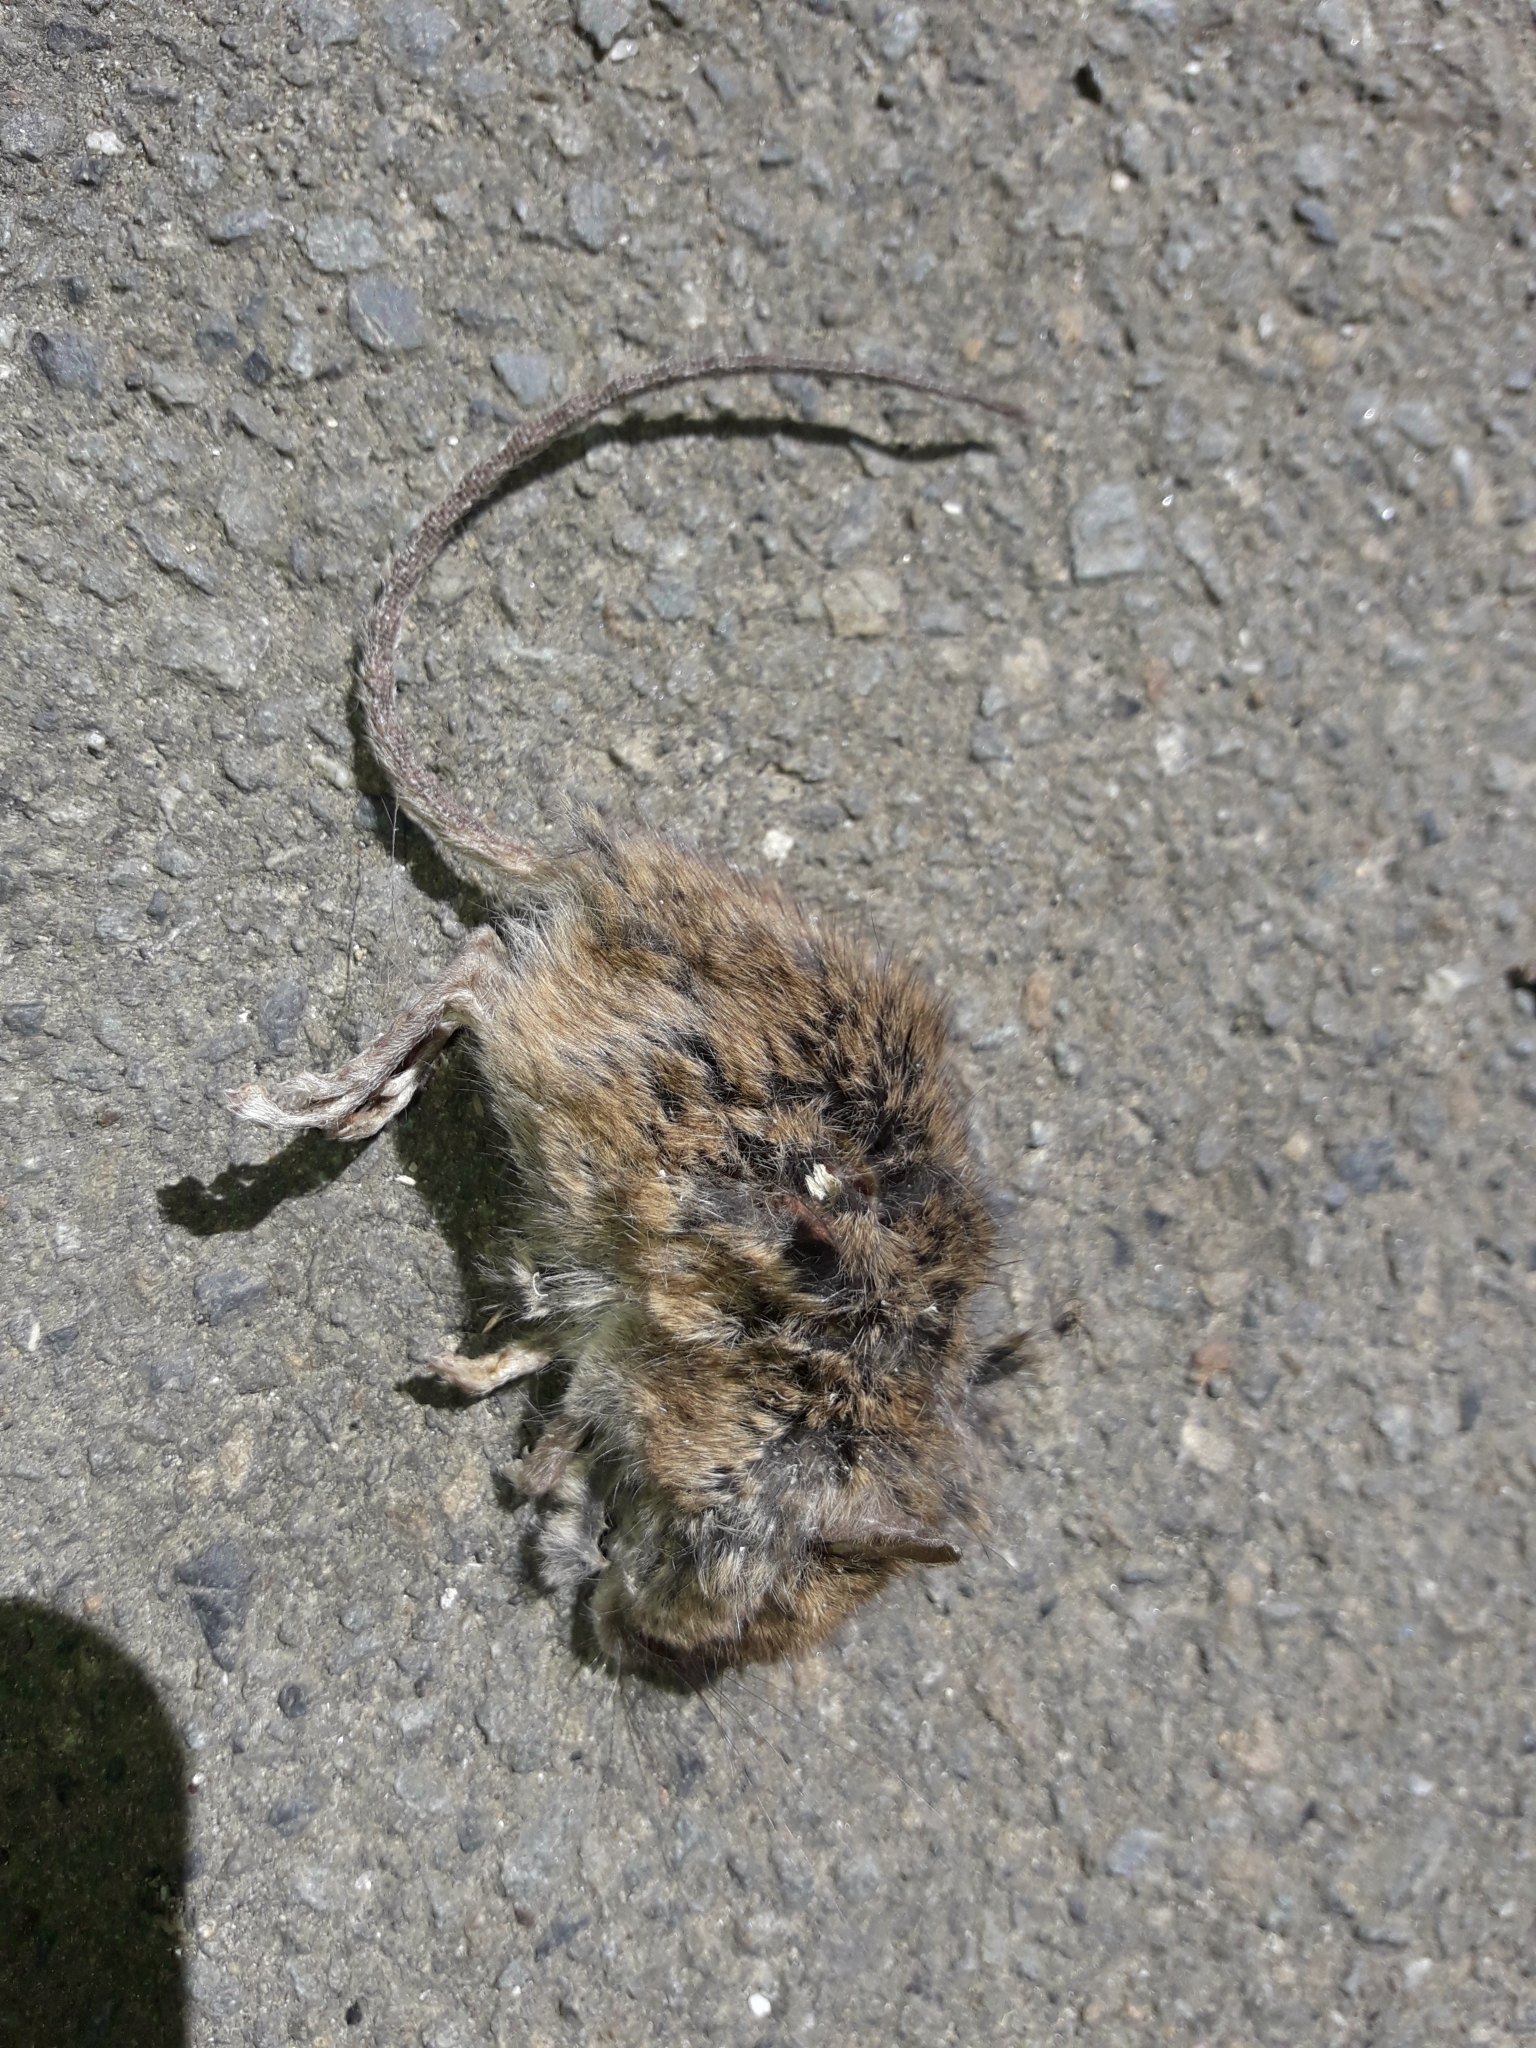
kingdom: Animalia
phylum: Chordata
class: Mammalia
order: Rodentia
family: Muridae
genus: Mus
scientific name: Mus musculus
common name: House mouse
